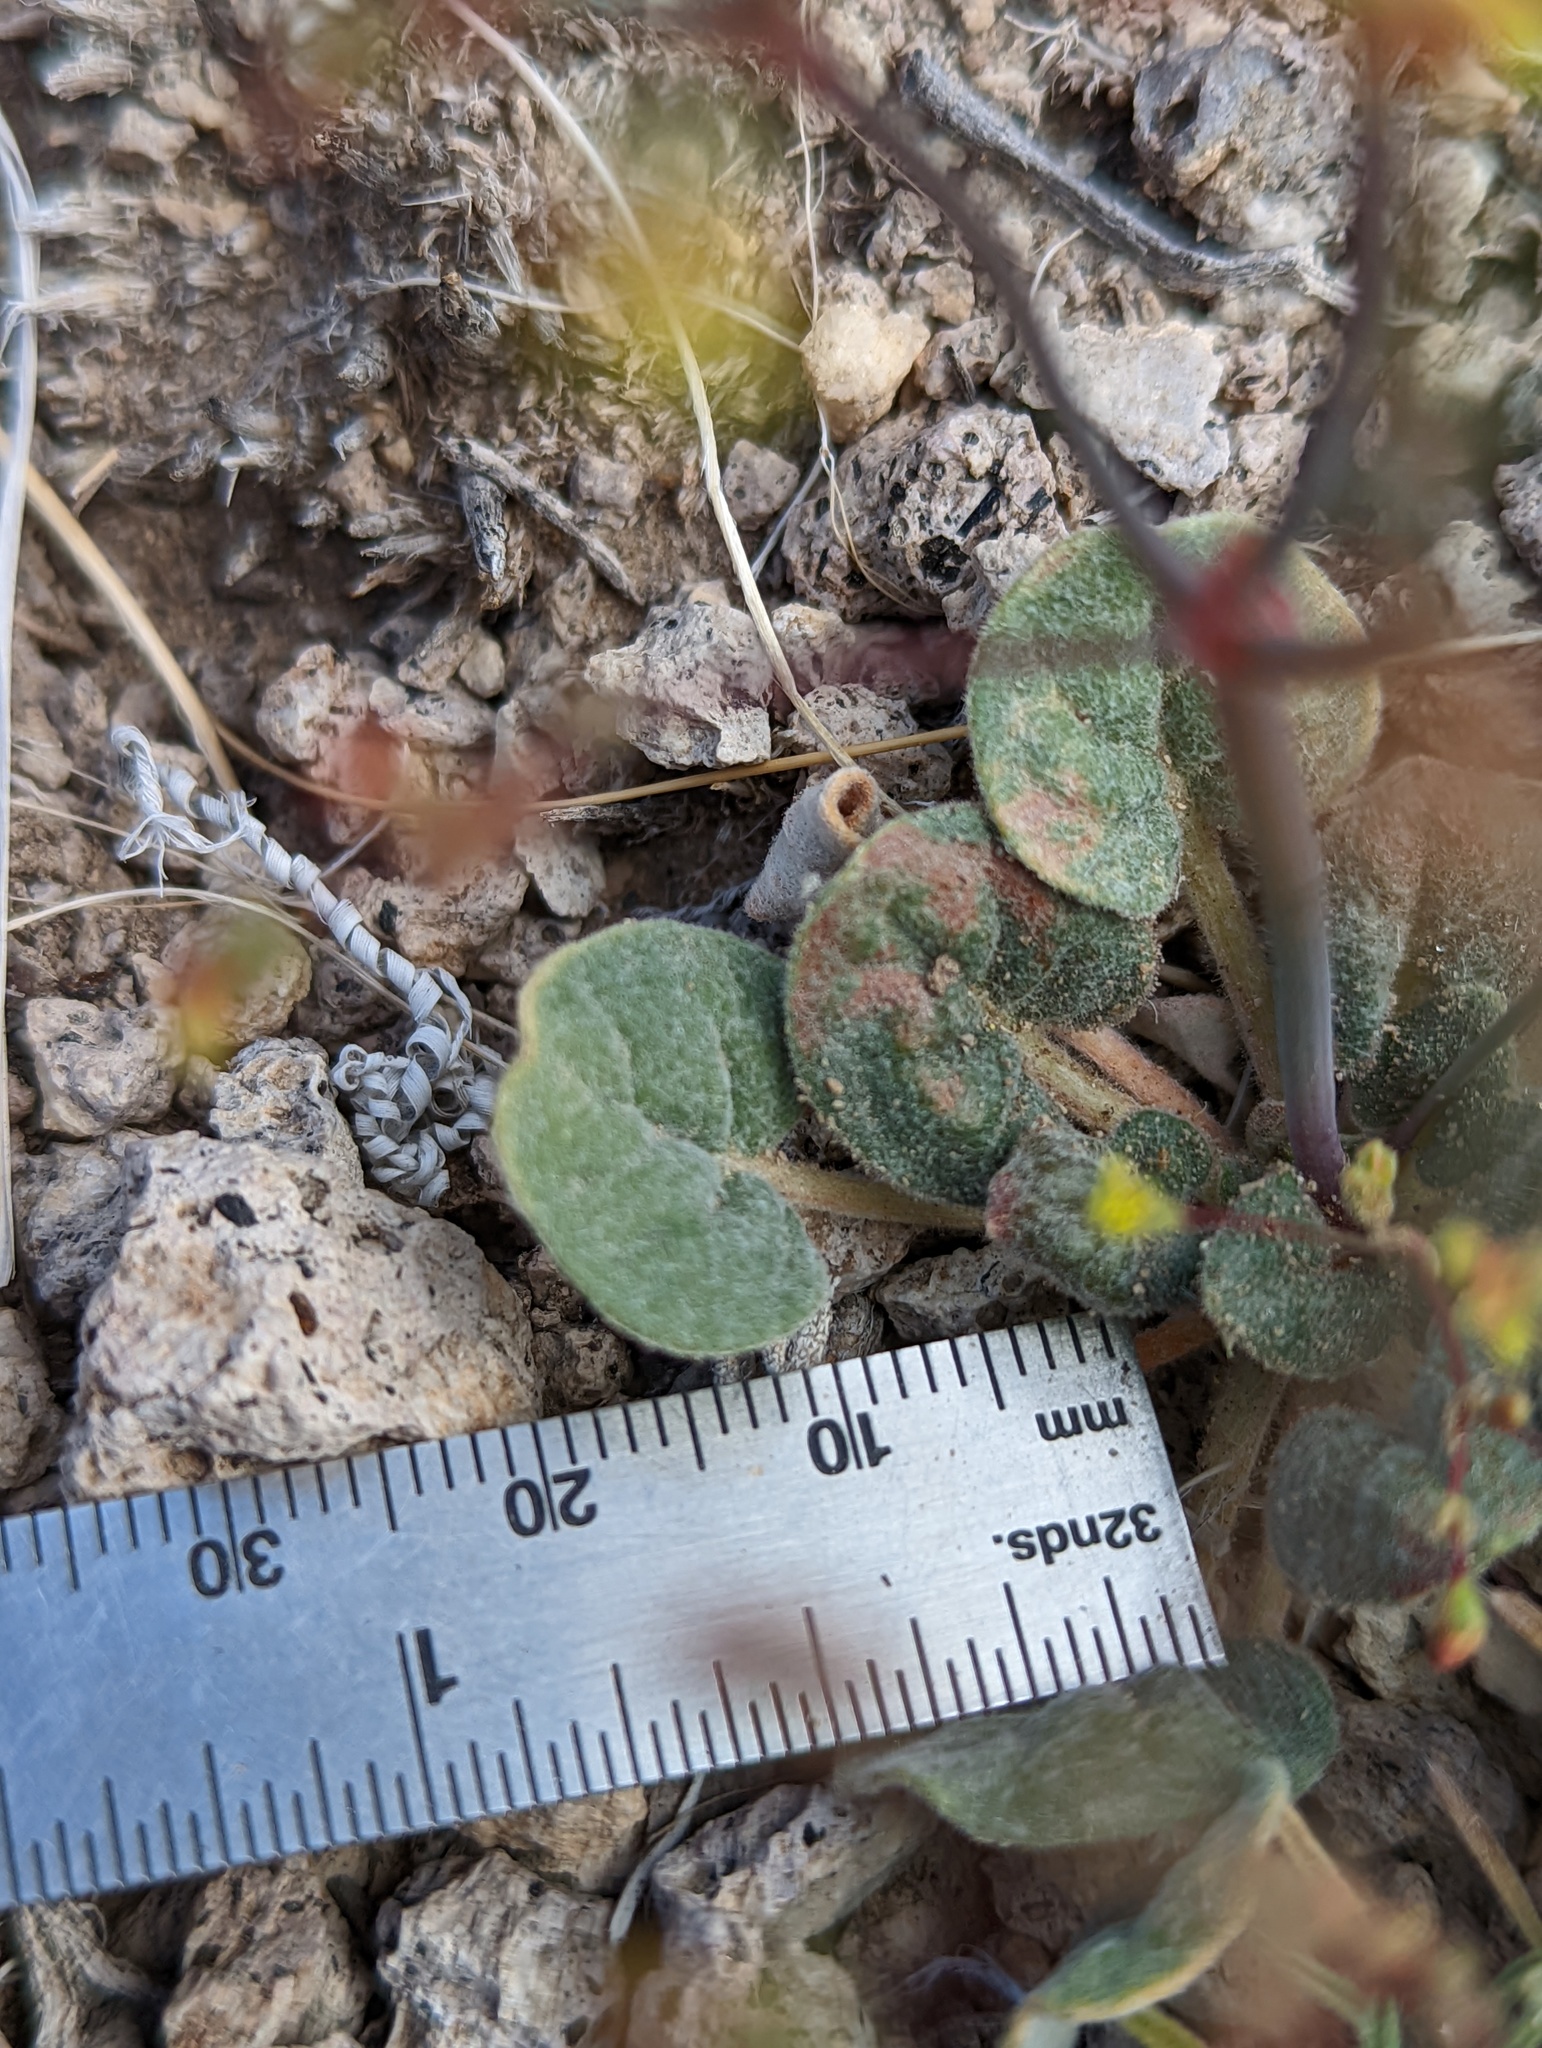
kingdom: Plantae
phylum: Tracheophyta
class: Magnoliopsida
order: Caryophyllales
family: Polygonaceae
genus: Eriogonum
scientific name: Eriogonum pusillum
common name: Yellow turbans
